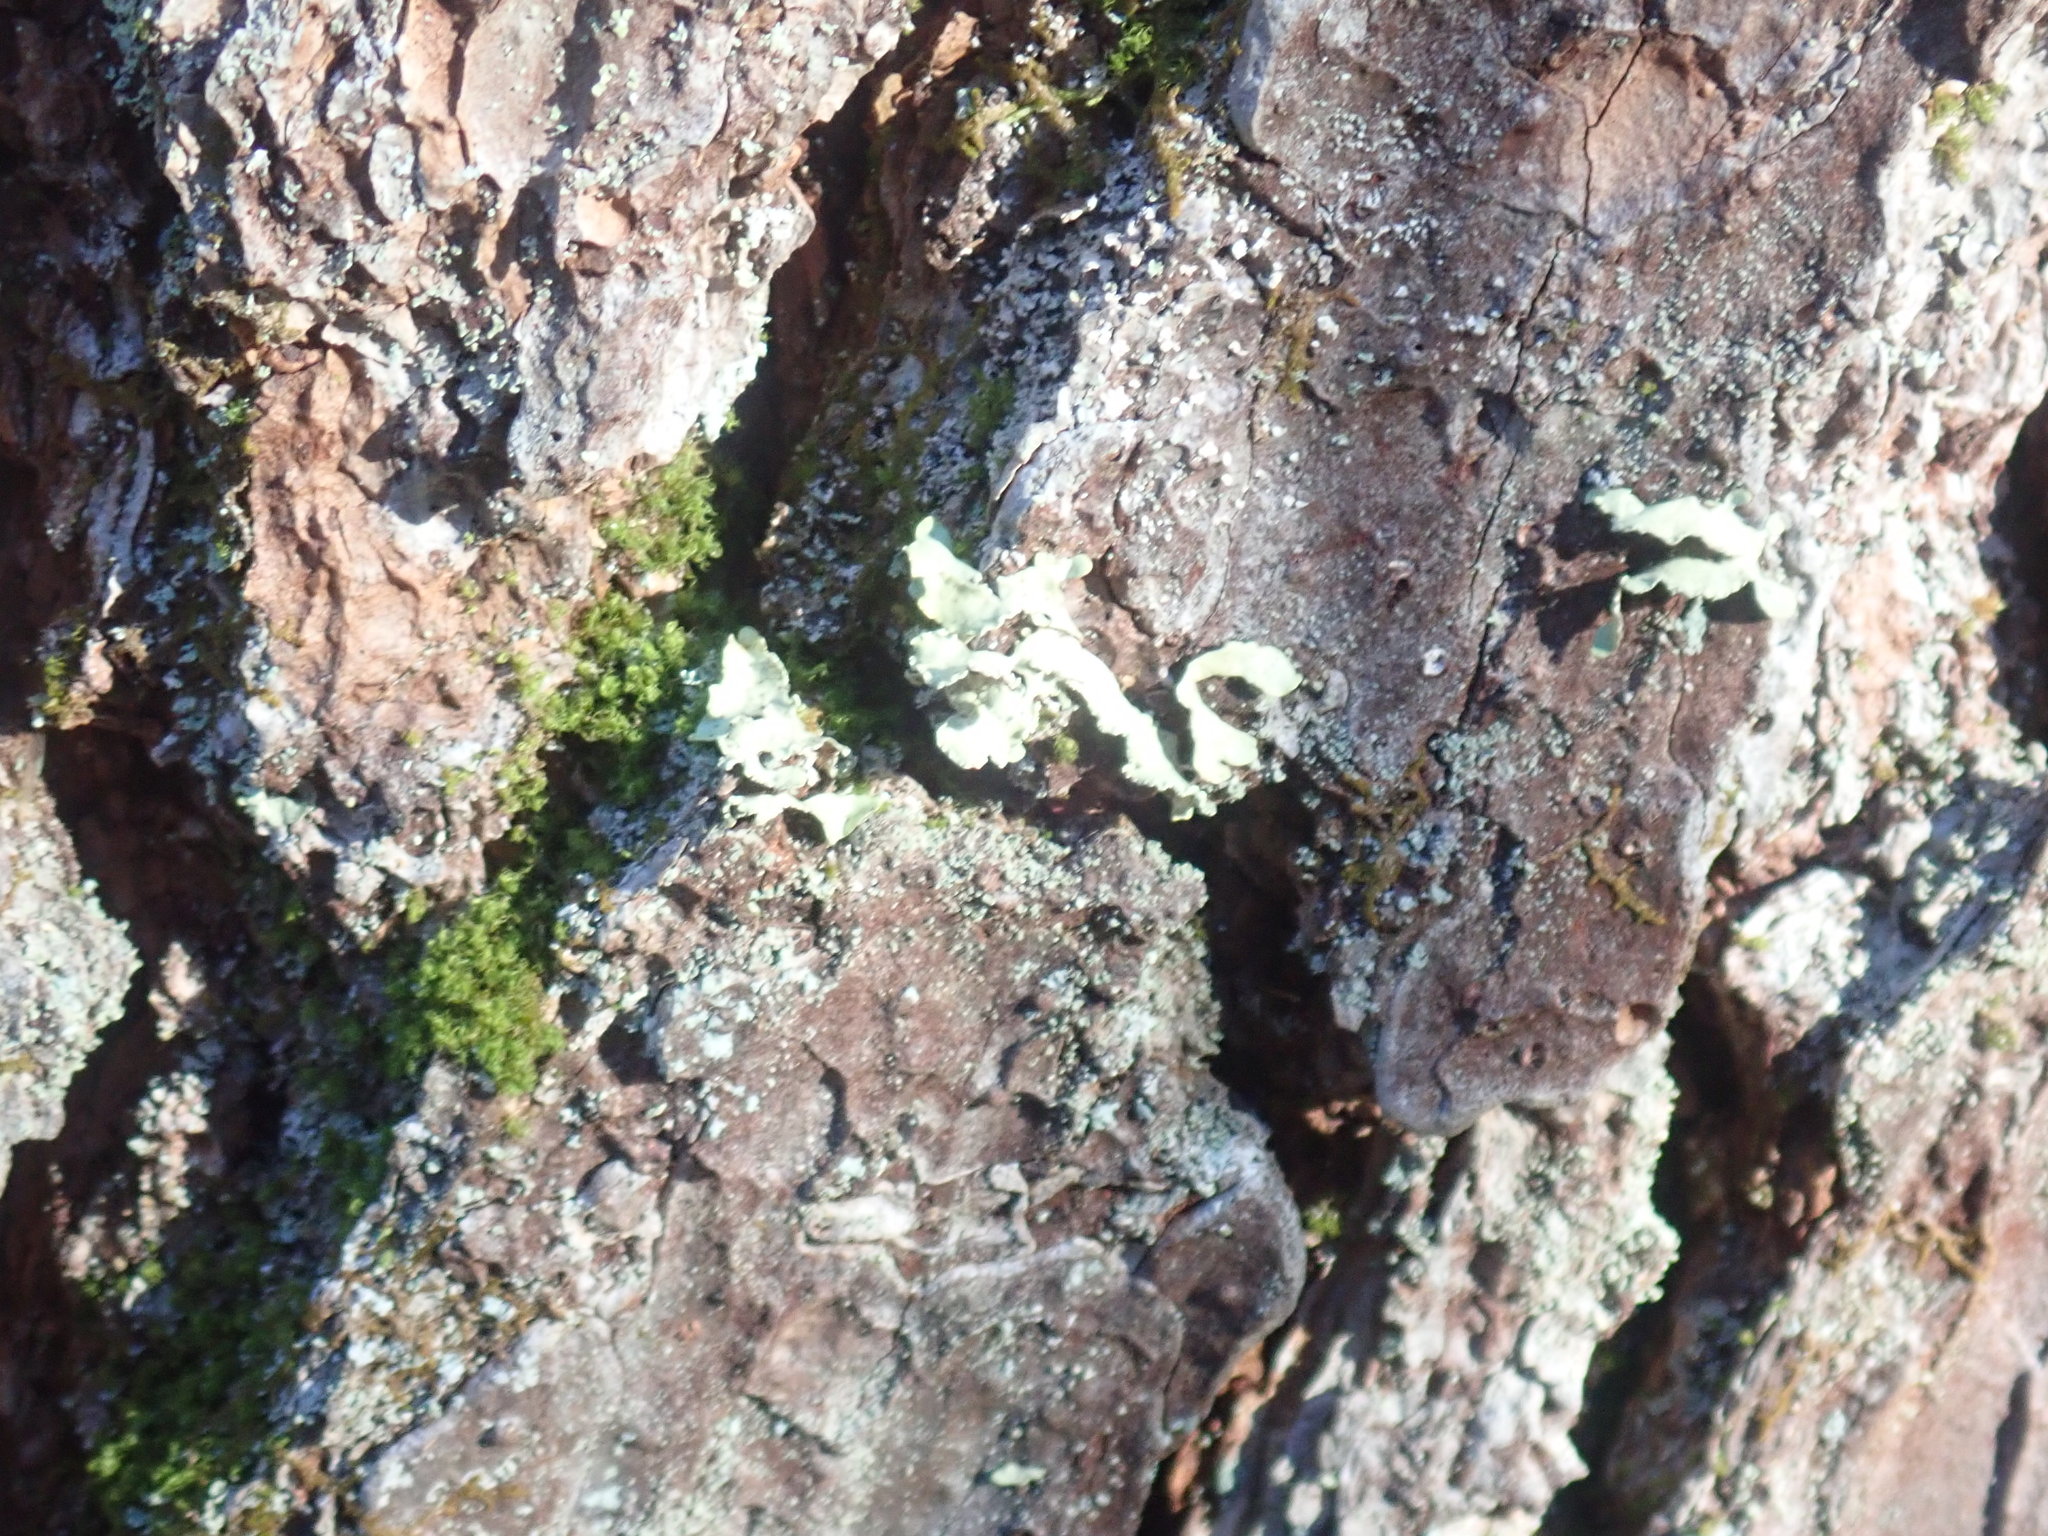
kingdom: Fungi
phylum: Ascomycota
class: Lecanoromycetes
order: Lecanorales
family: Parmeliaceae
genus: Usnocetraria
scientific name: Usnocetraria oakesiana
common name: Yellow ribbon lichen
